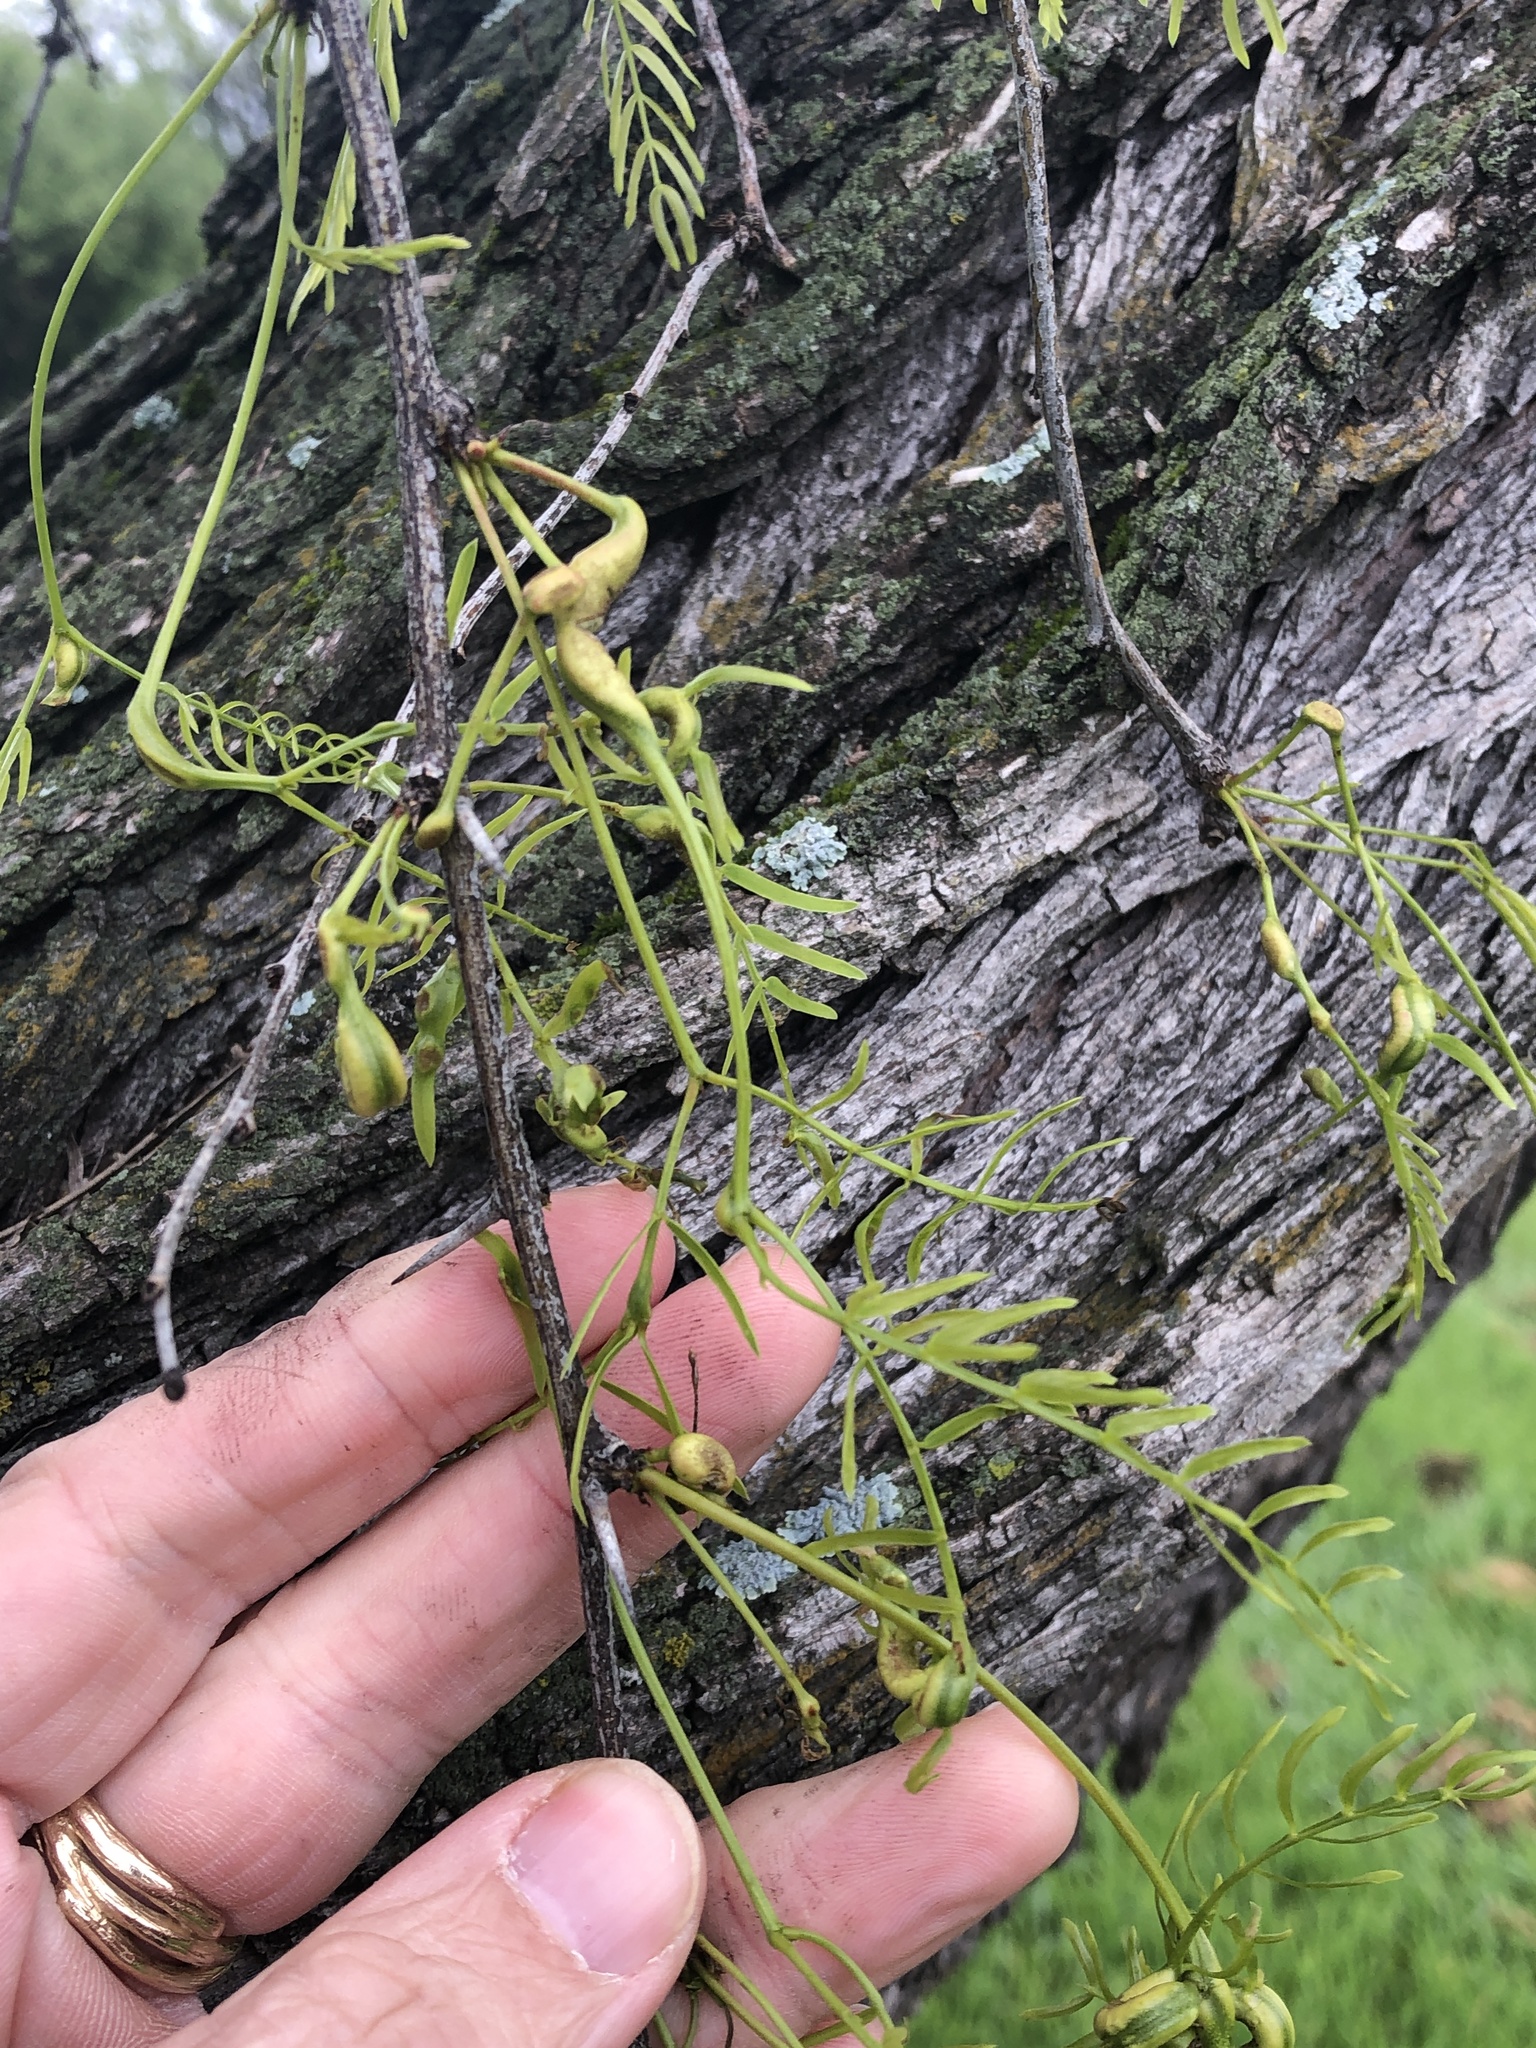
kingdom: Plantae
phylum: Tracheophyta
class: Magnoliopsida
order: Fabales
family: Fabaceae
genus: Prosopis
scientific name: Prosopis glandulosa
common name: Honey mesquite
